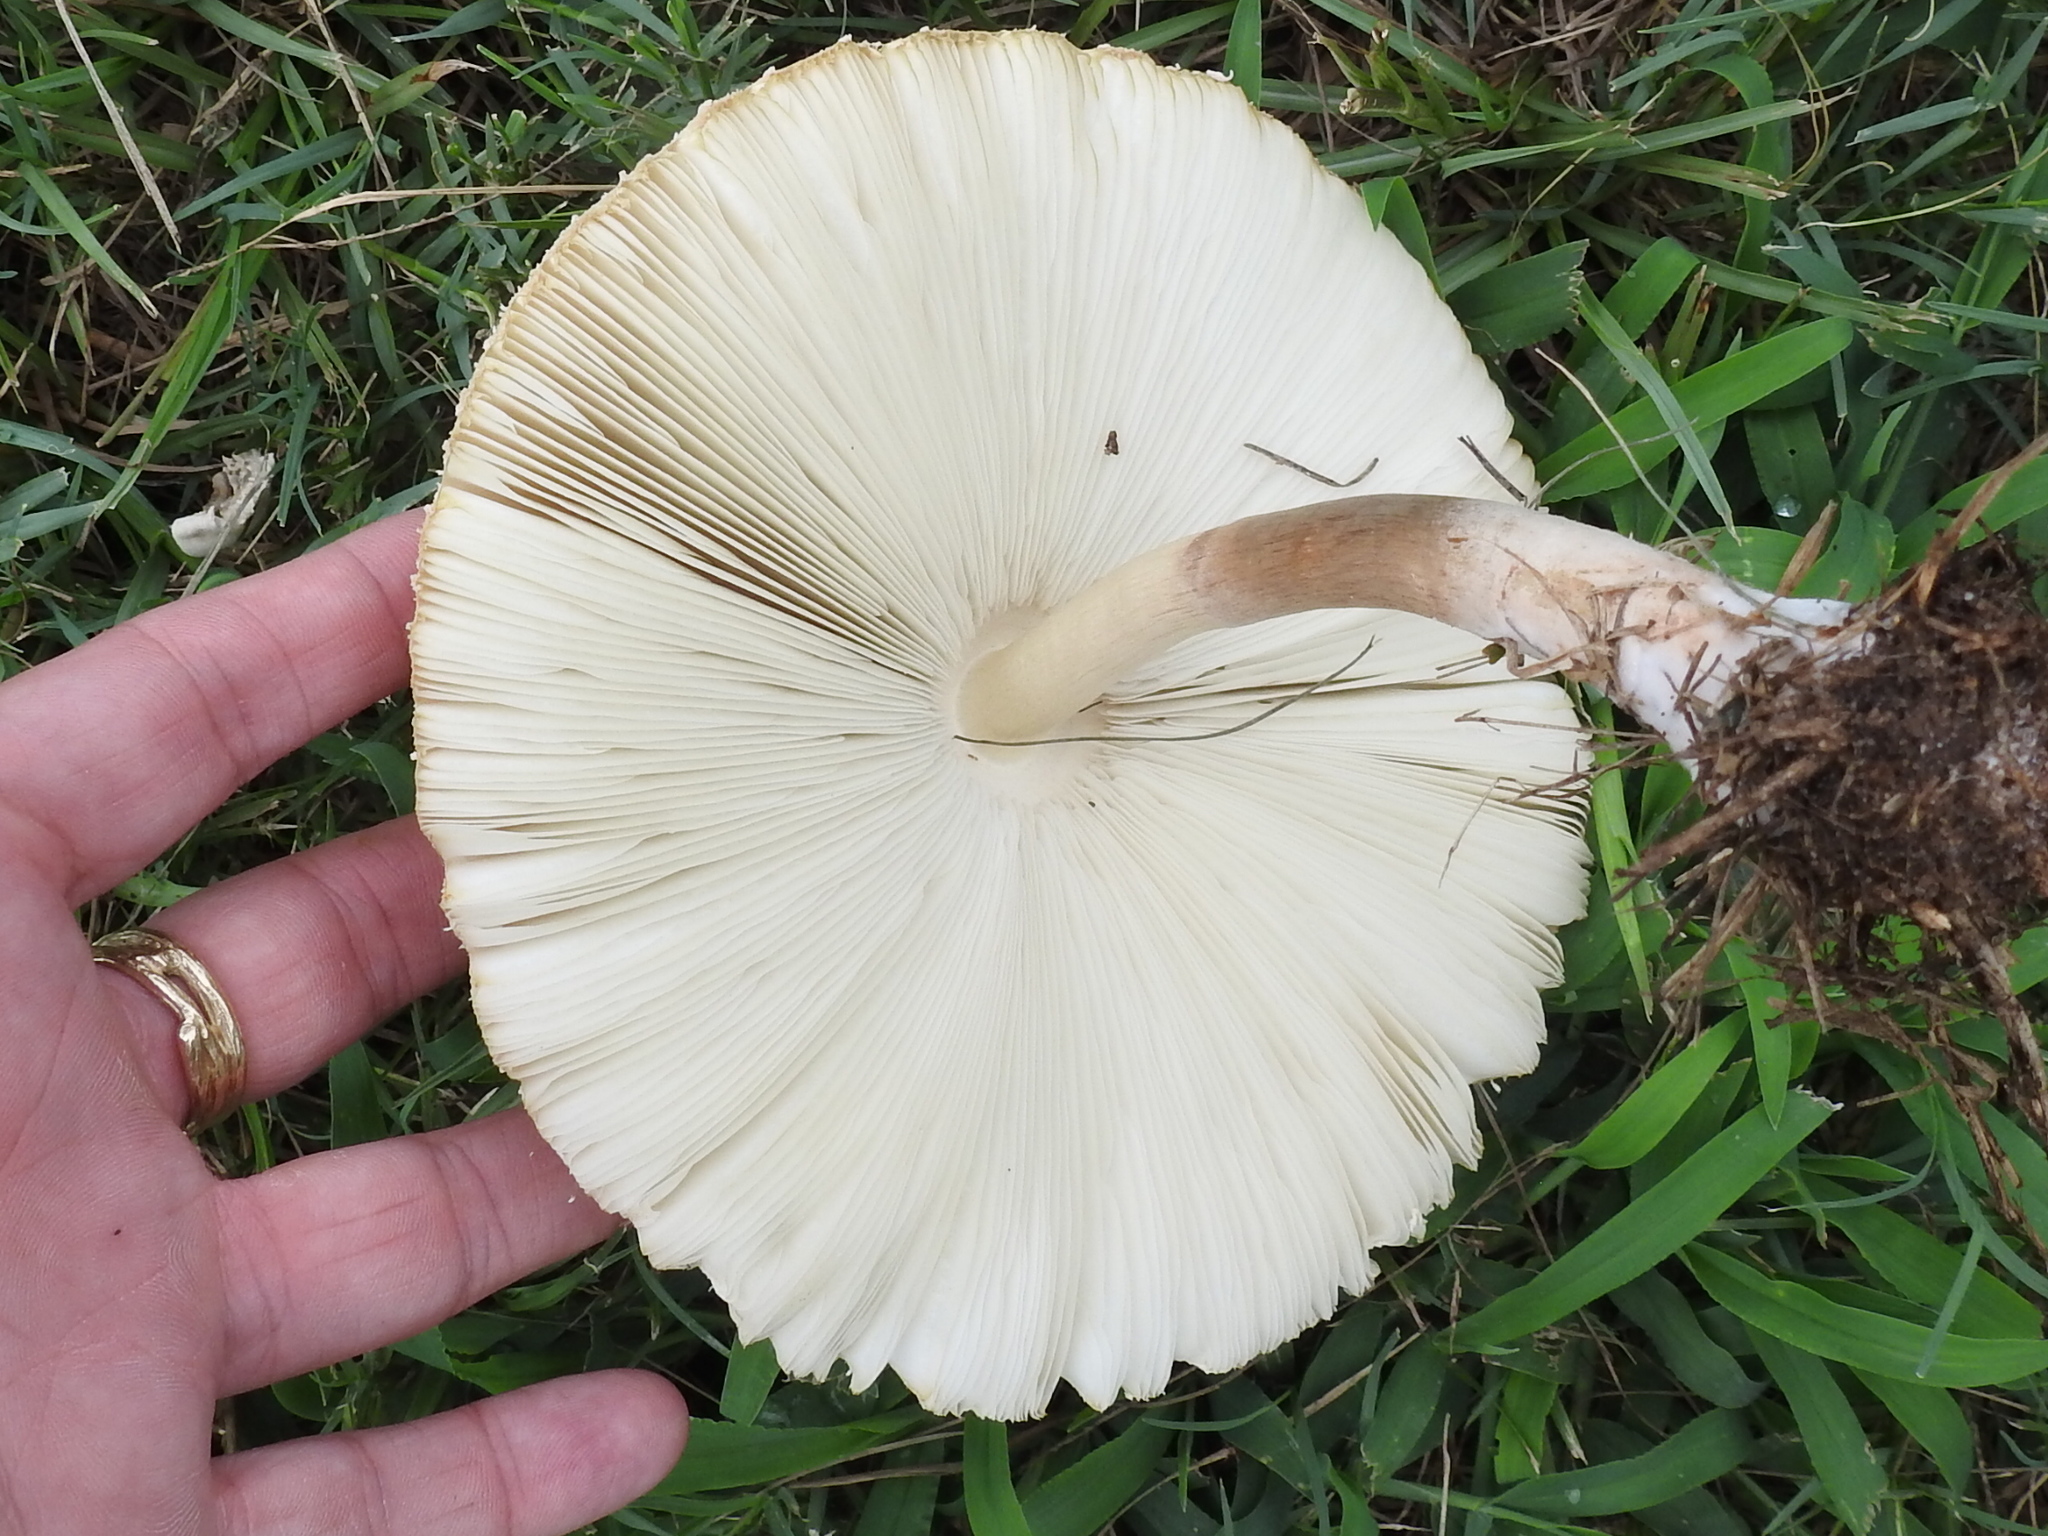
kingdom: Fungi
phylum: Basidiomycota
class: Agaricomycetes
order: Agaricales
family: Agaricaceae
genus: Chlorophyllum
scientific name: Chlorophyllum molybdites
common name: False parasol
